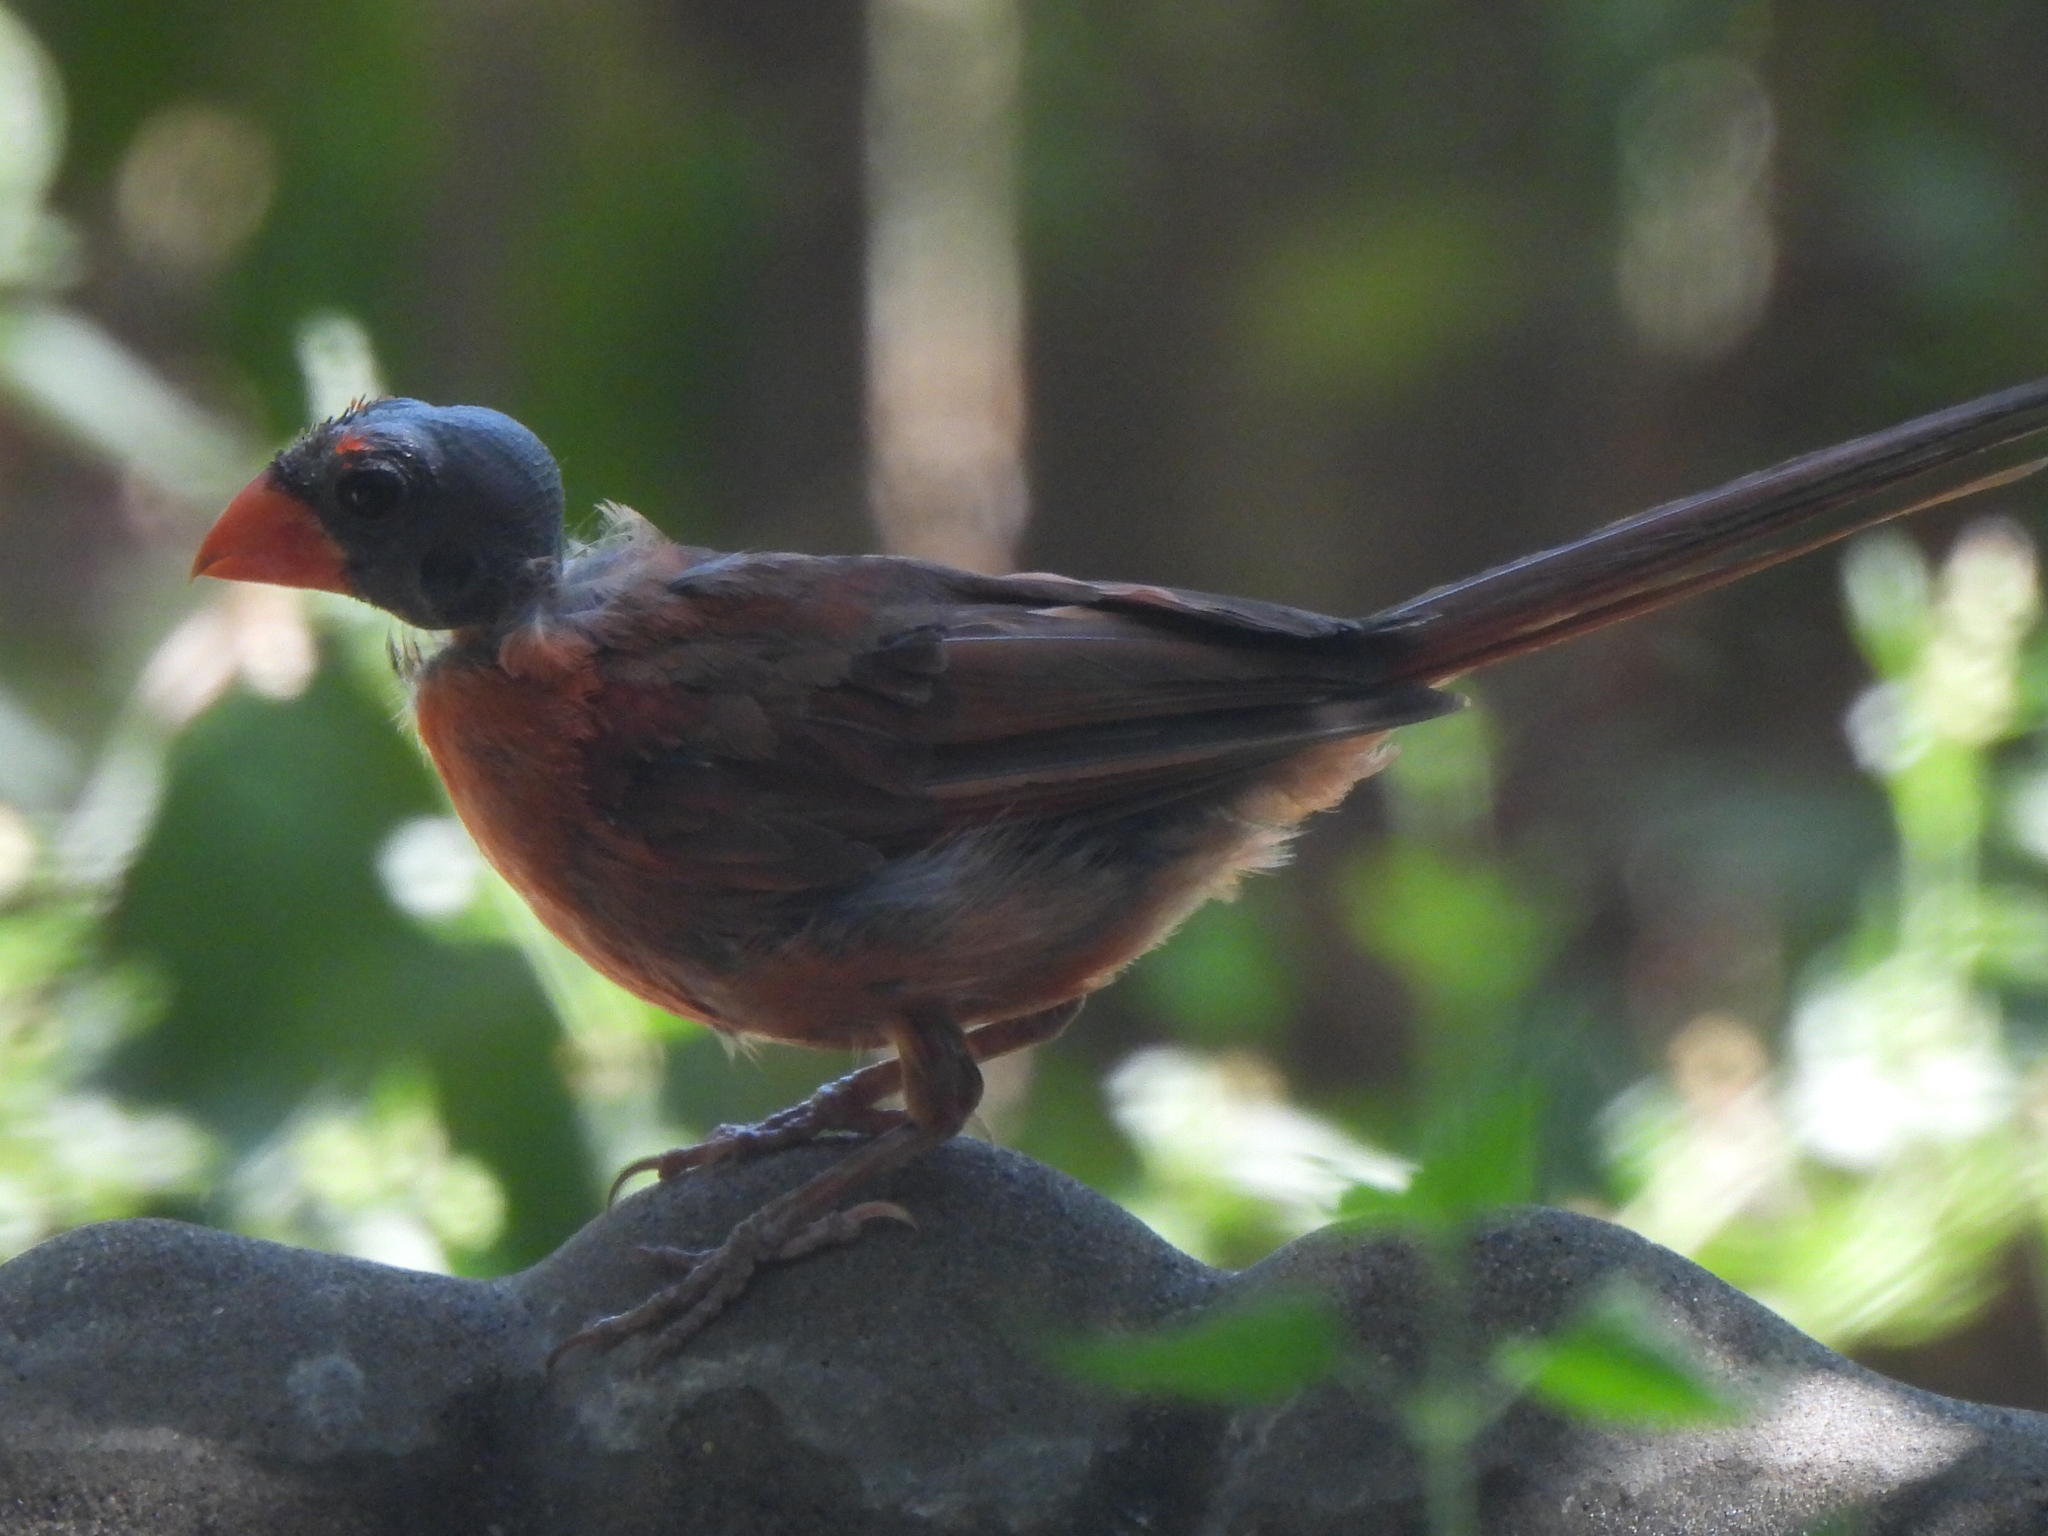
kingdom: Animalia
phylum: Chordata
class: Aves
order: Passeriformes
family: Cardinalidae
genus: Cardinalis
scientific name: Cardinalis cardinalis
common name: Northern cardinal
